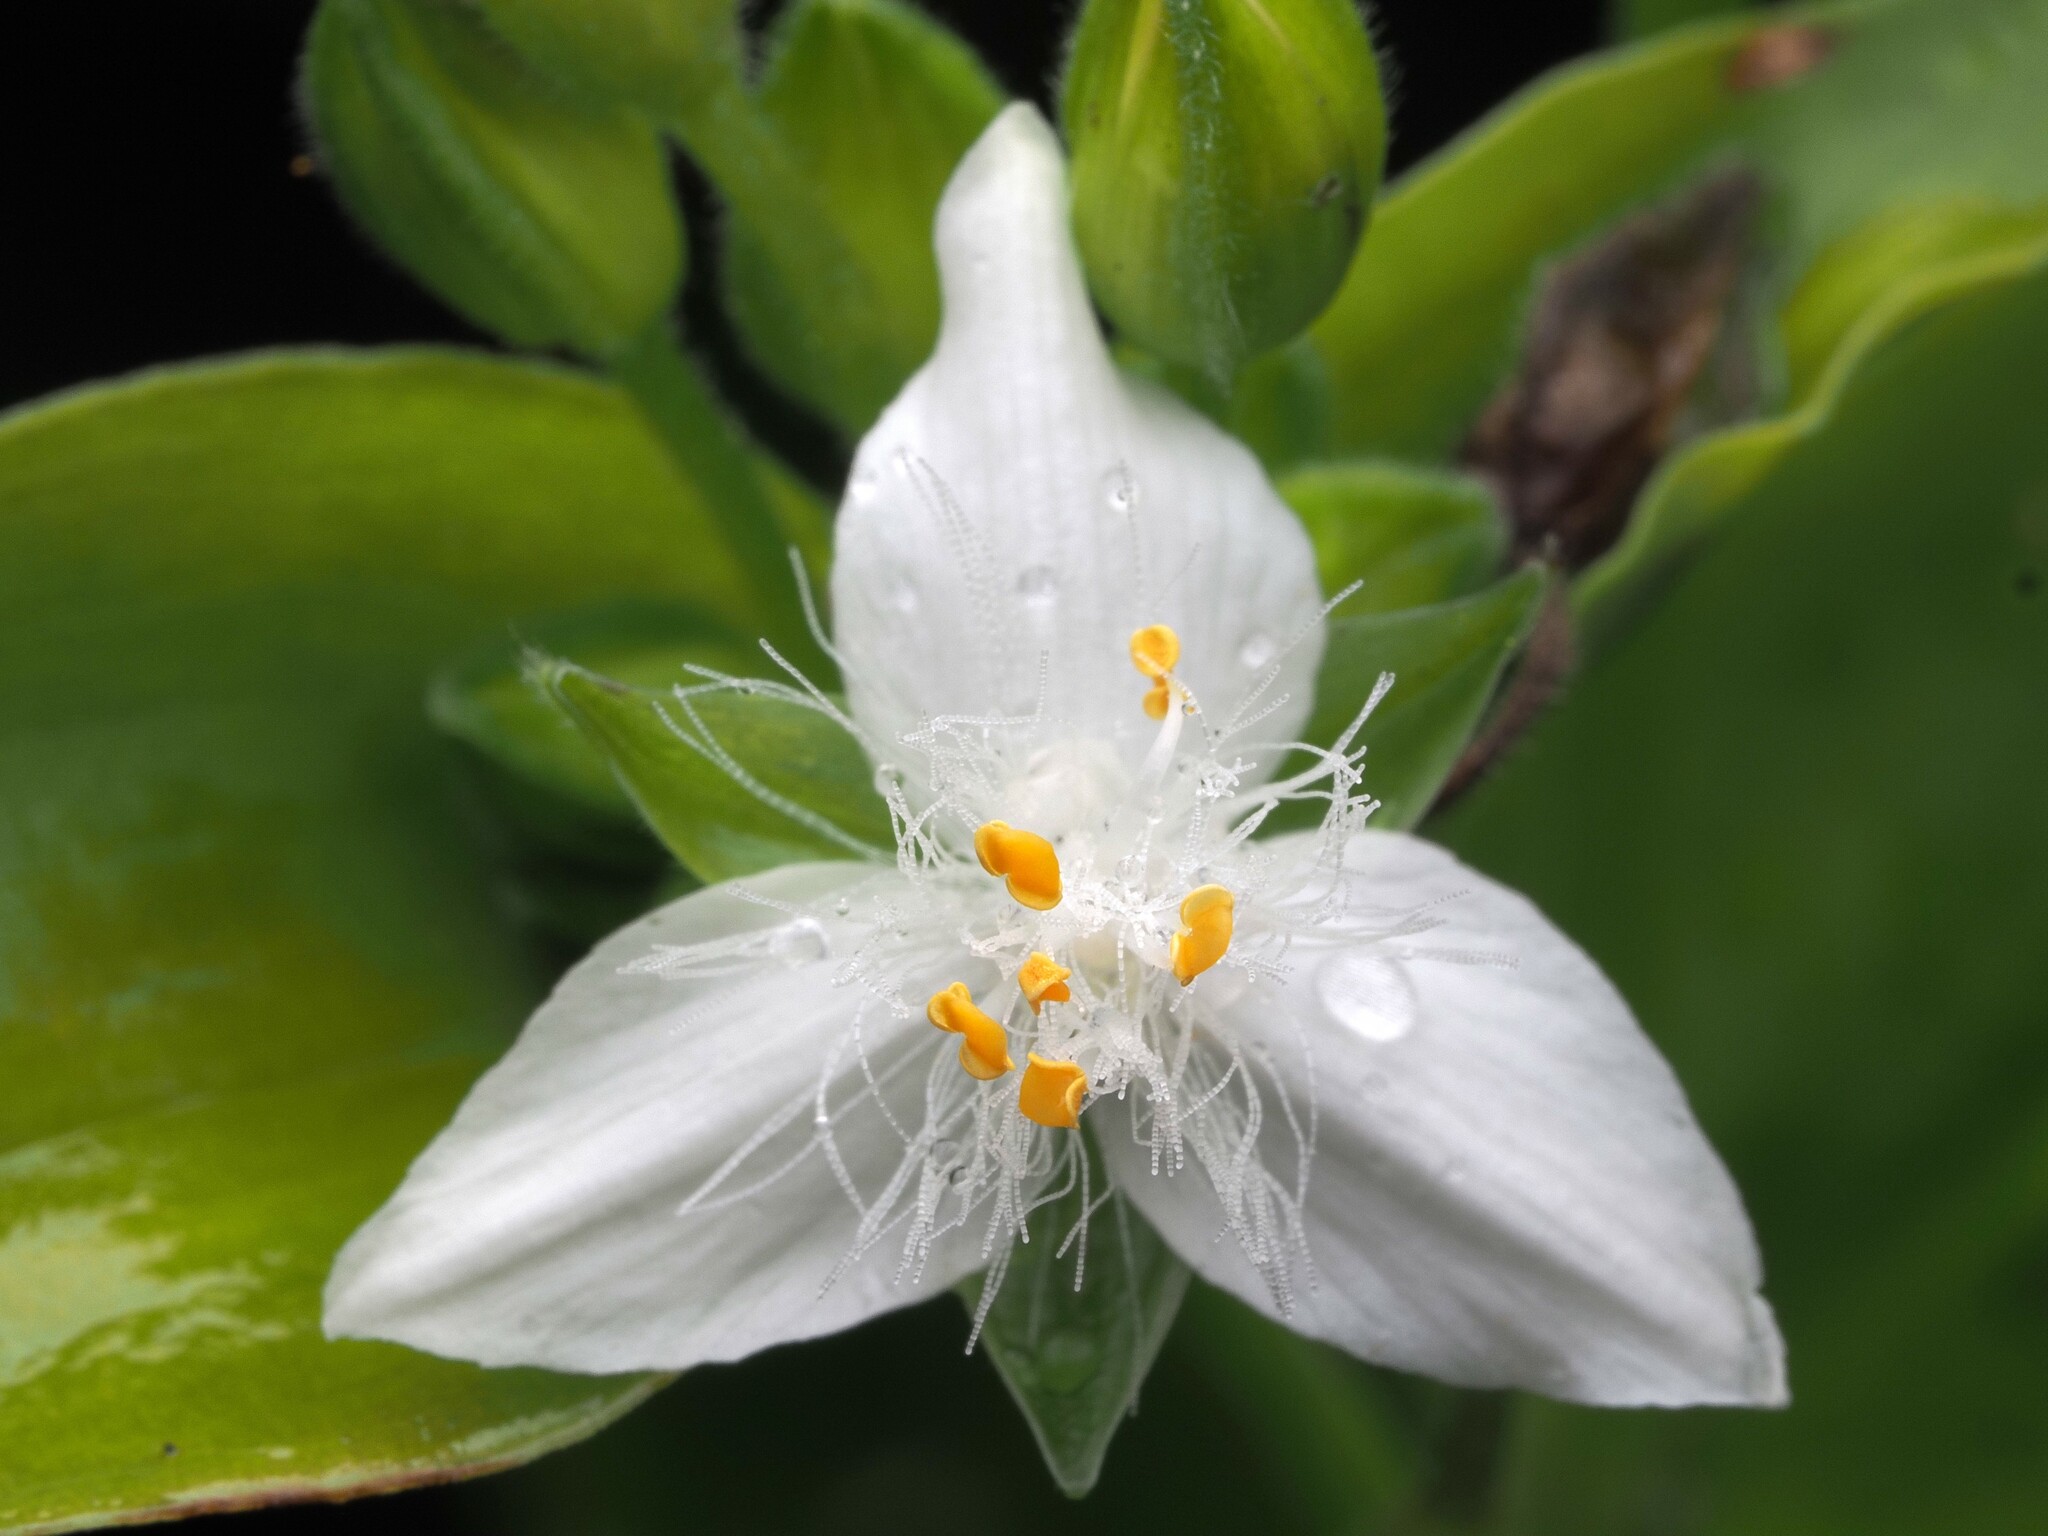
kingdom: Plantae
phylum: Tracheophyta
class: Liliopsida
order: Commelinales
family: Commelinaceae
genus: Tradescantia
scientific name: Tradescantia fluminensis
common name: Wandering-jew
